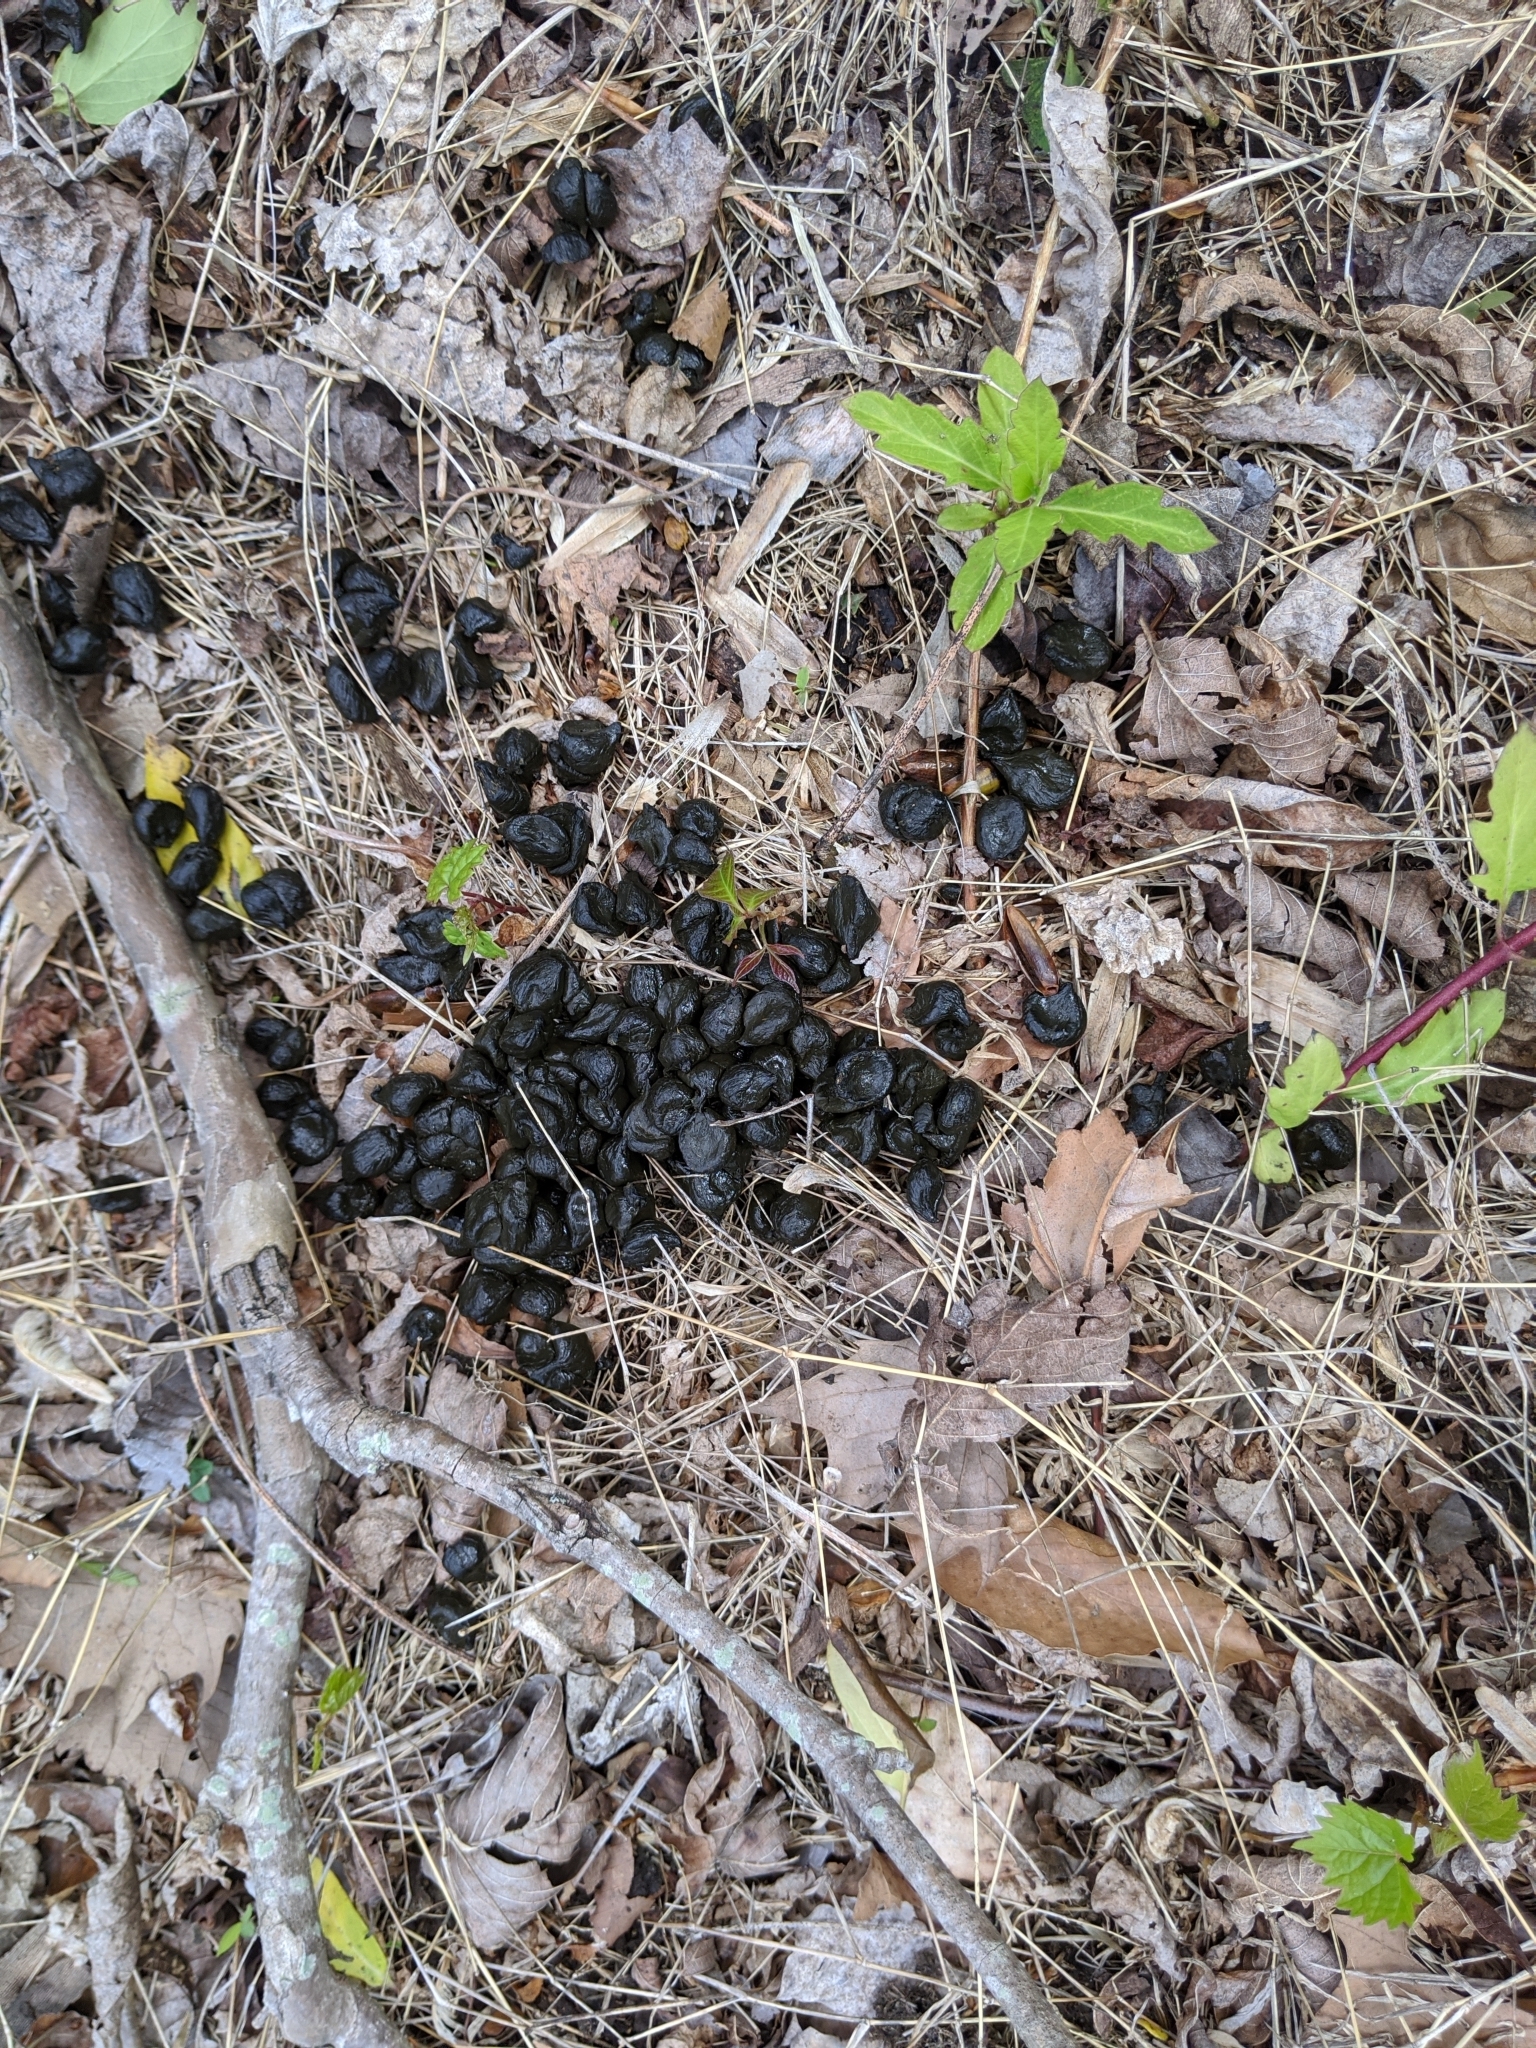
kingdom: Animalia
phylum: Chordata
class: Mammalia
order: Artiodactyla
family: Cervidae
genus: Odocoileus
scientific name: Odocoileus virginianus
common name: White-tailed deer
